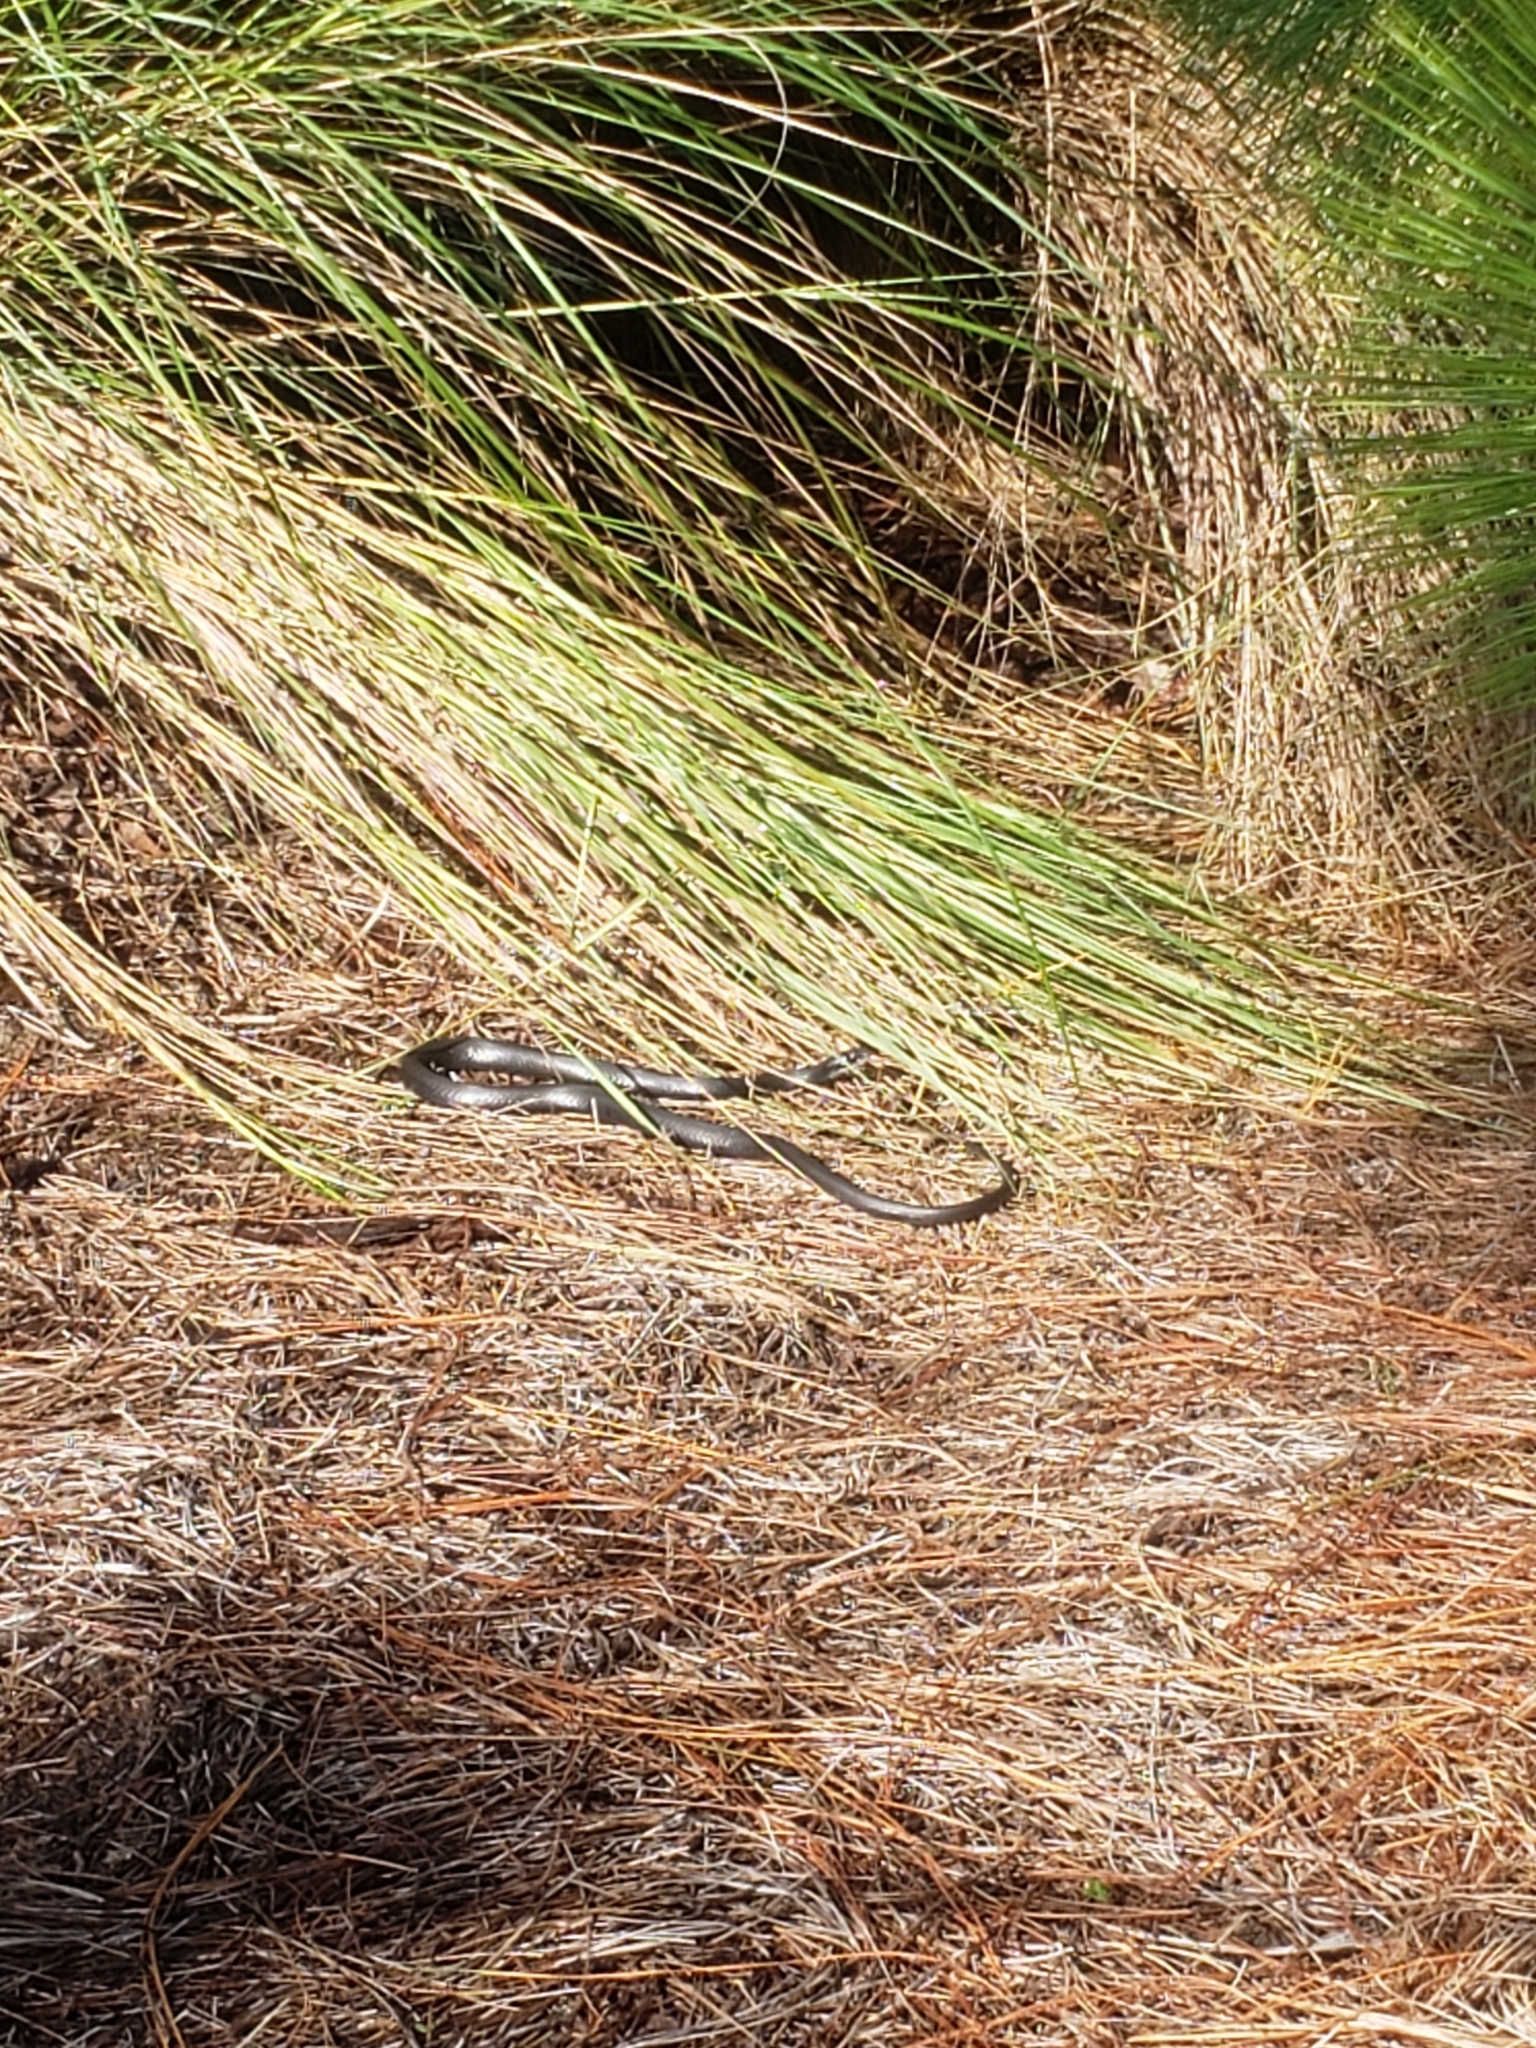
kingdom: Animalia
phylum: Chordata
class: Squamata
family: Colubridae
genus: Coluber
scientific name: Coluber constrictor
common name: Eastern racer
